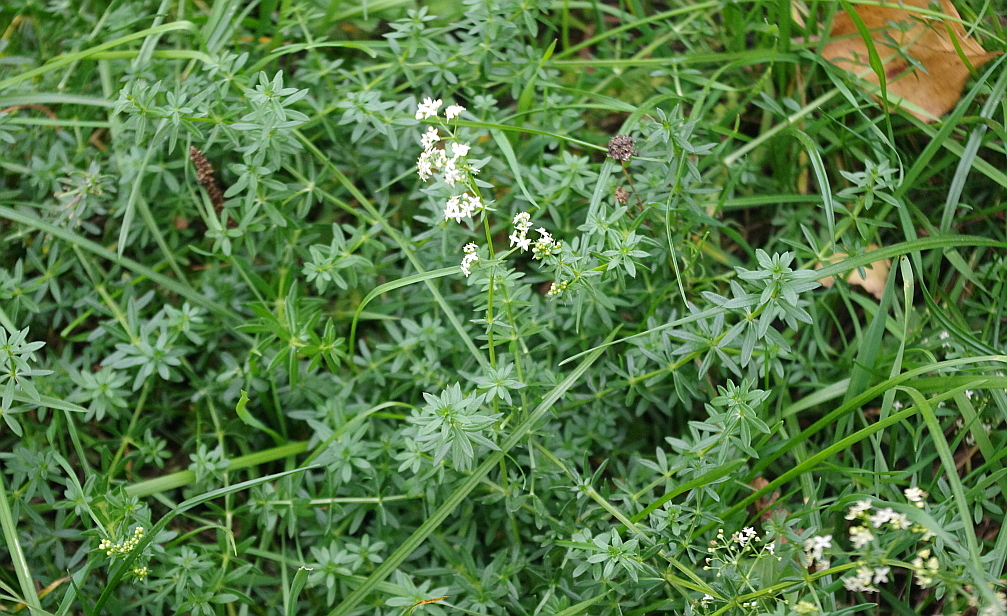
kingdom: Plantae
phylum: Tracheophyta
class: Magnoliopsida
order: Gentianales
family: Rubiaceae
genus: Galium
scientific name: Galium mollugo
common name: Hedge bedstraw
